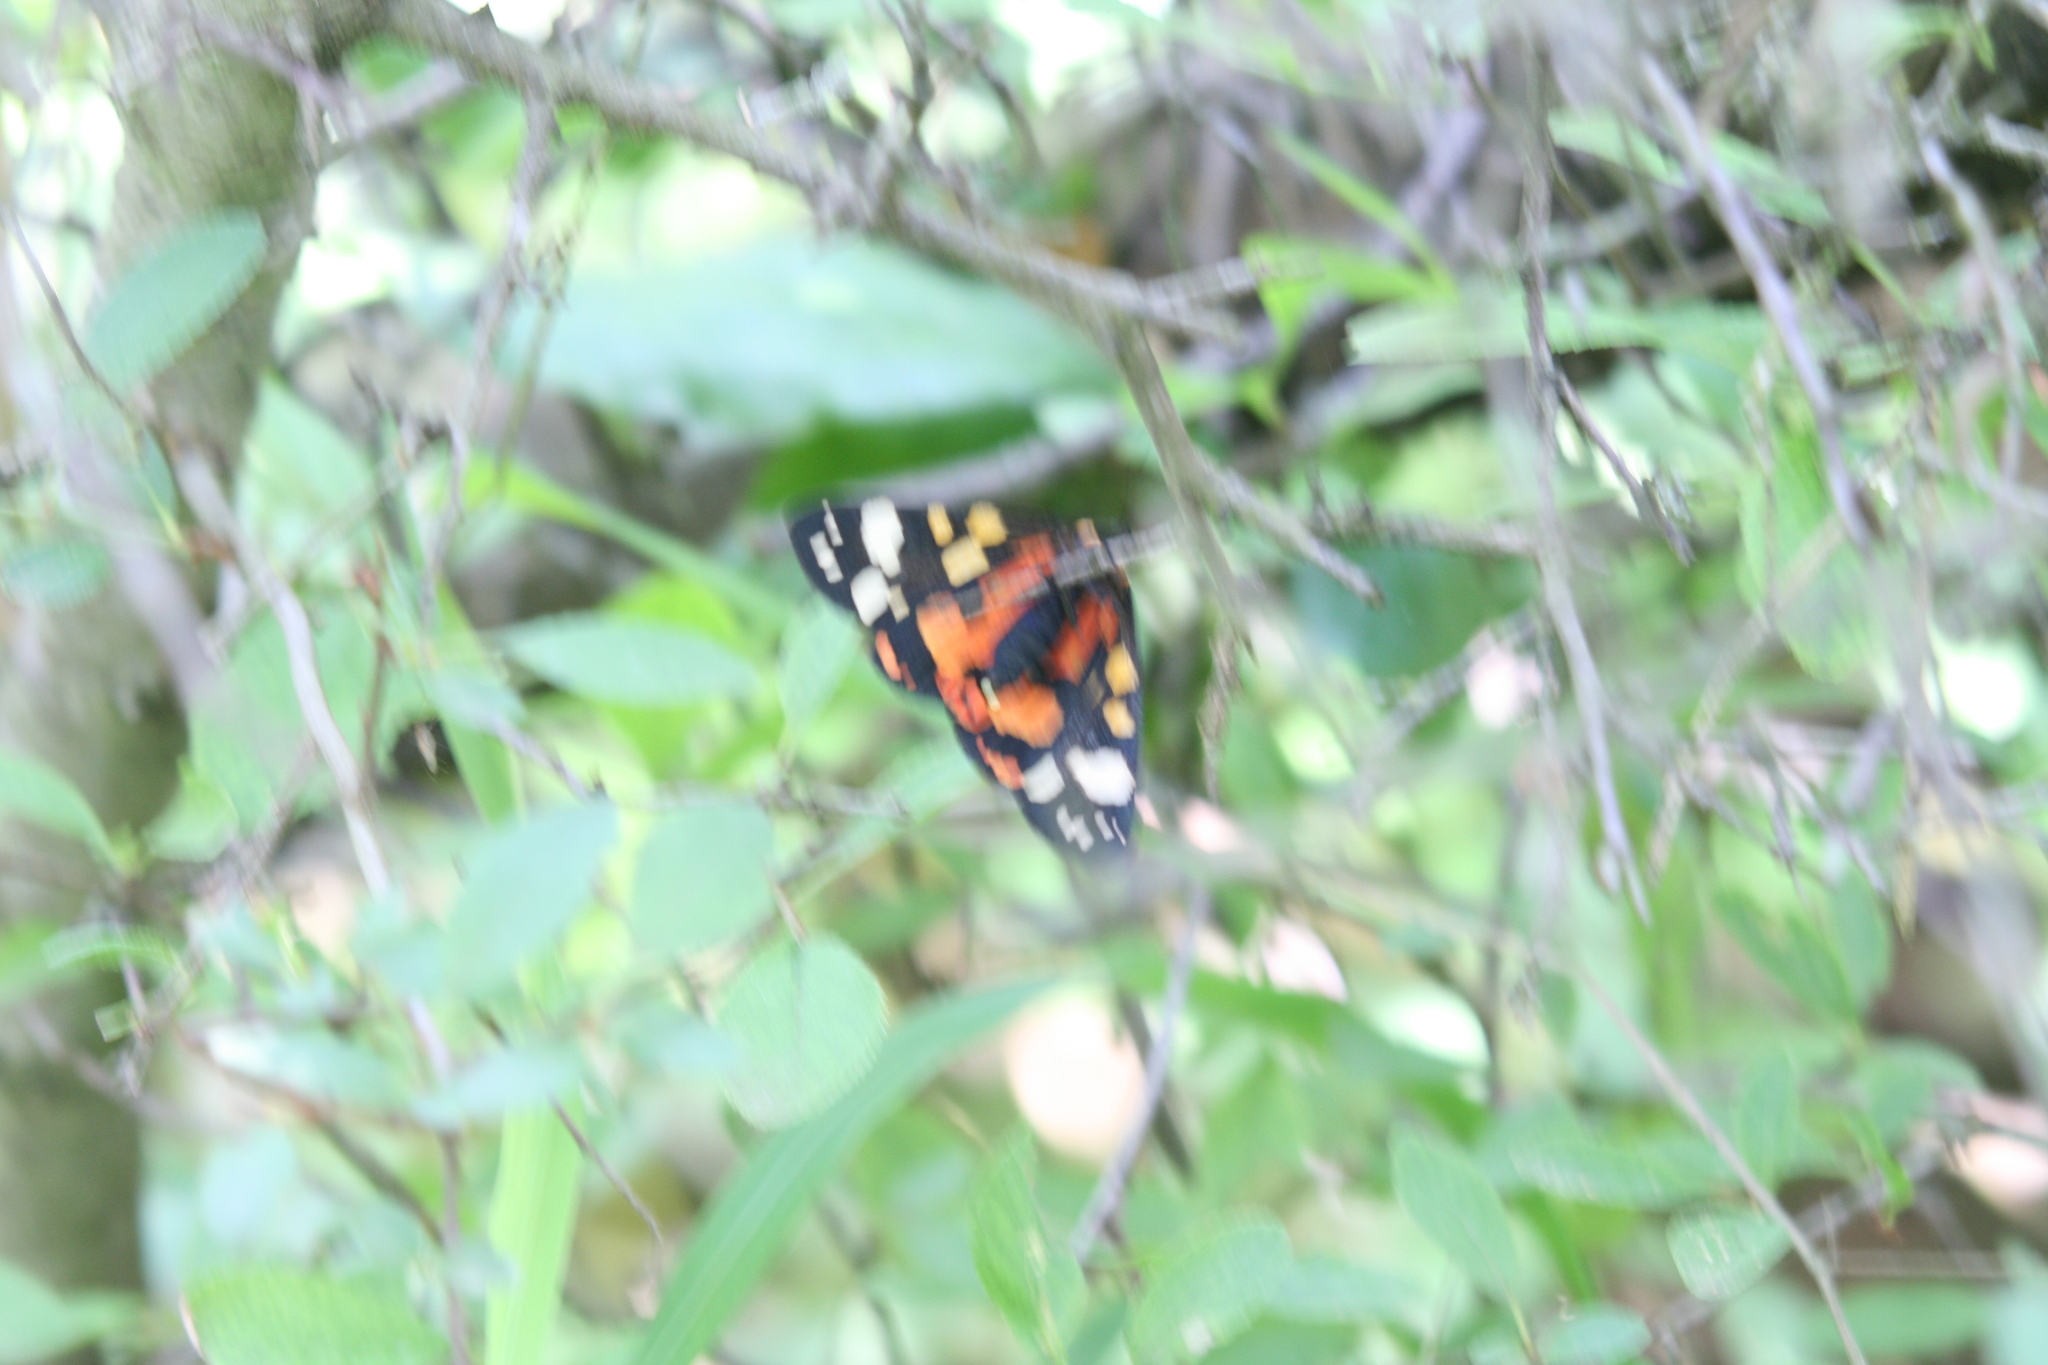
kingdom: Animalia
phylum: Arthropoda
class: Insecta
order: Lepidoptera
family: Erebidae
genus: Callimorpha
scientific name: Callimorpha dominula
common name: Scarlet tiger
